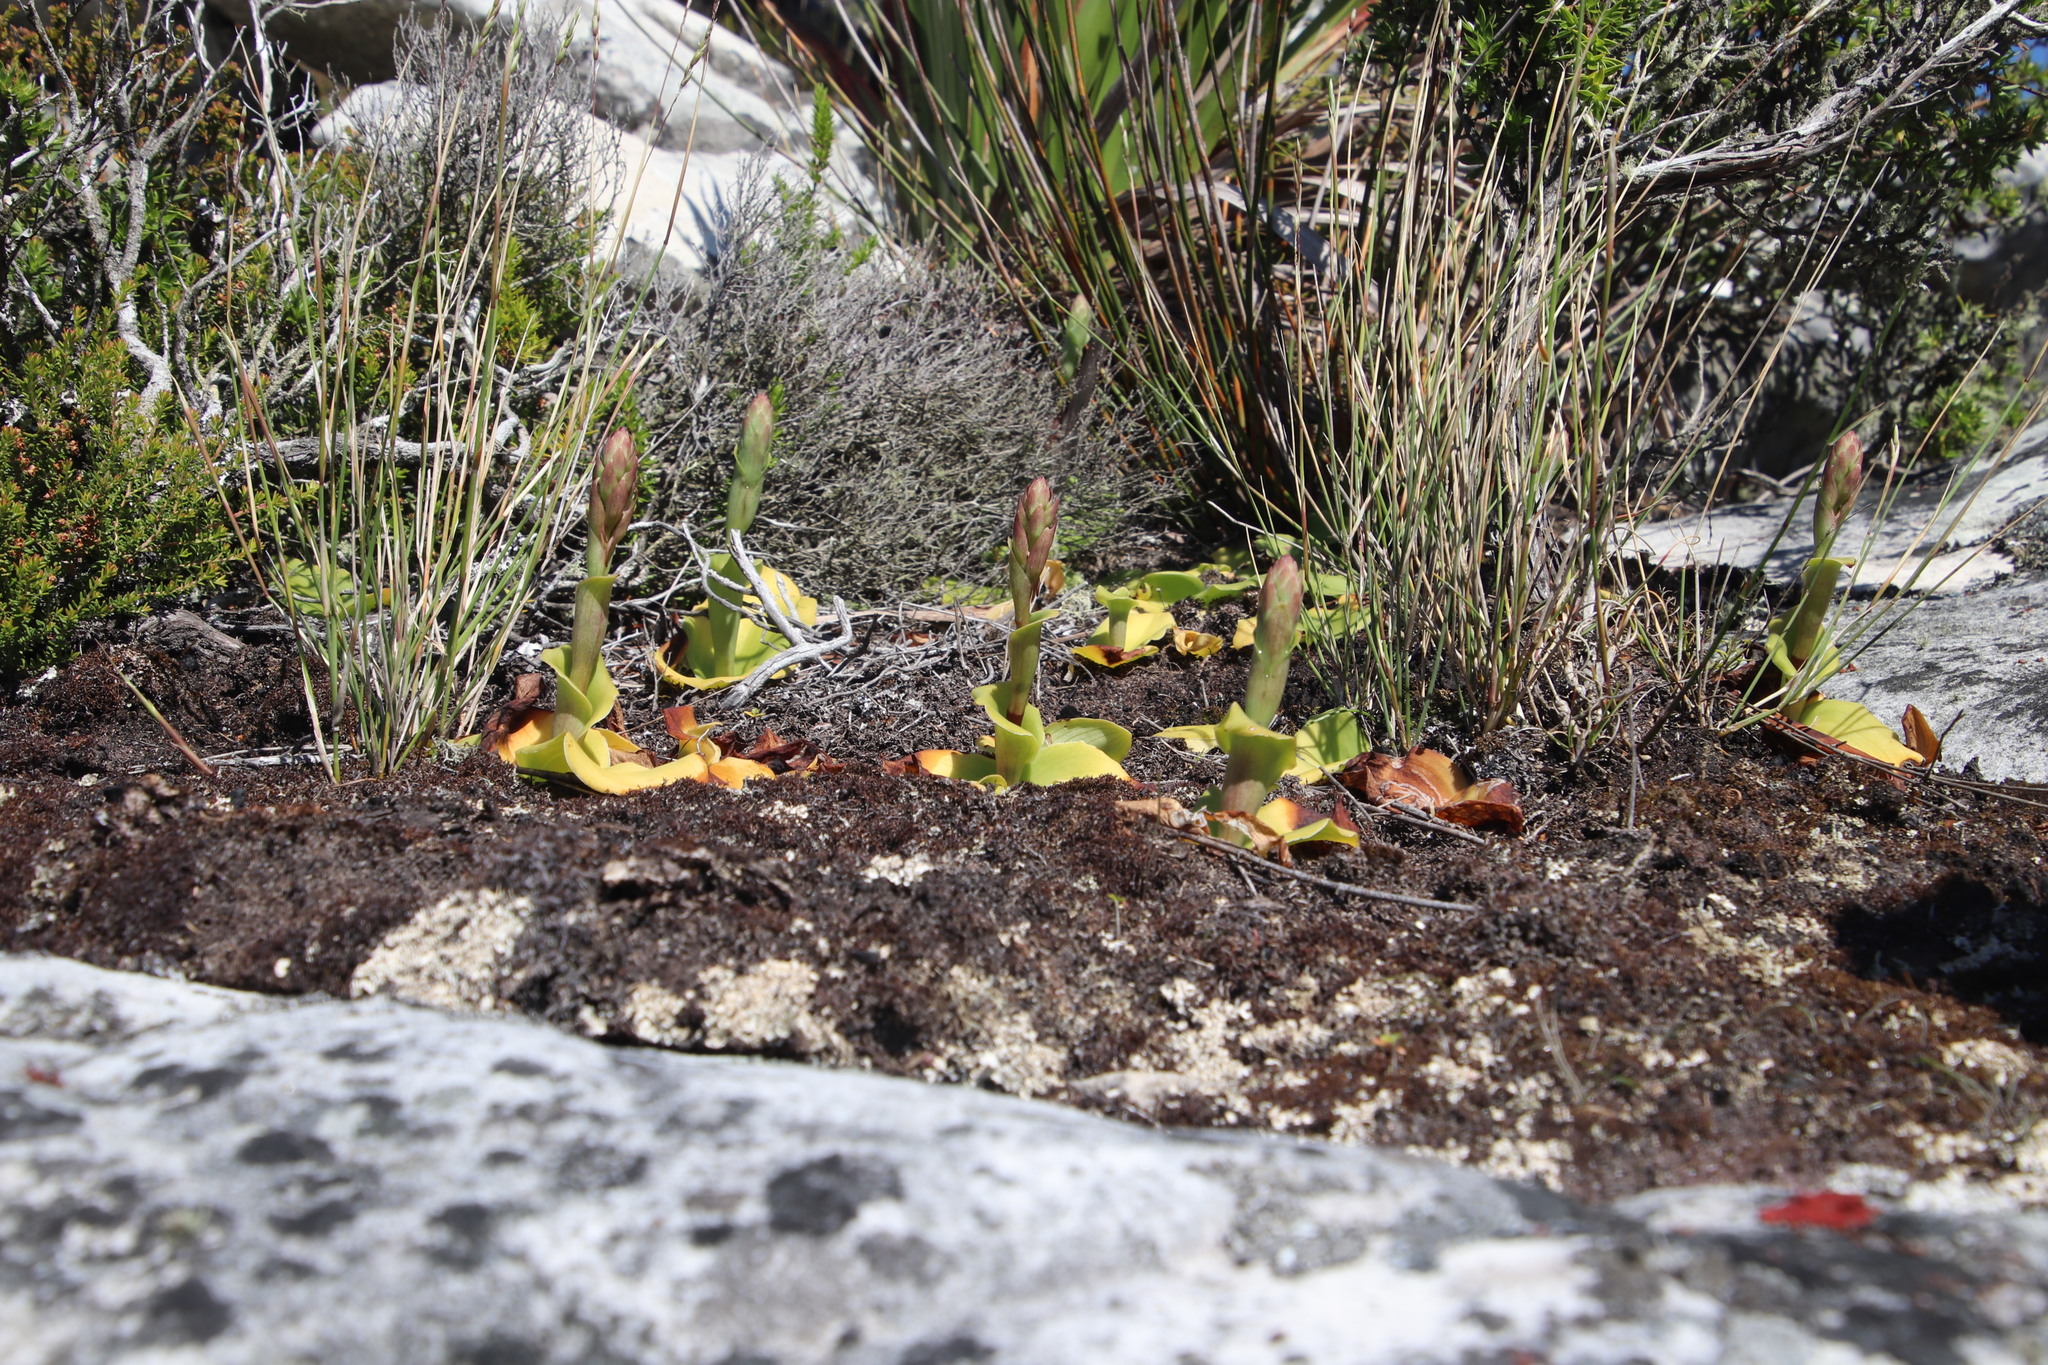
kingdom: Plantae
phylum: Tracheophyta
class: Liliopsida
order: Asparagales
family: Orchidaceae
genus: Satyrium
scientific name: Satyrium humile
